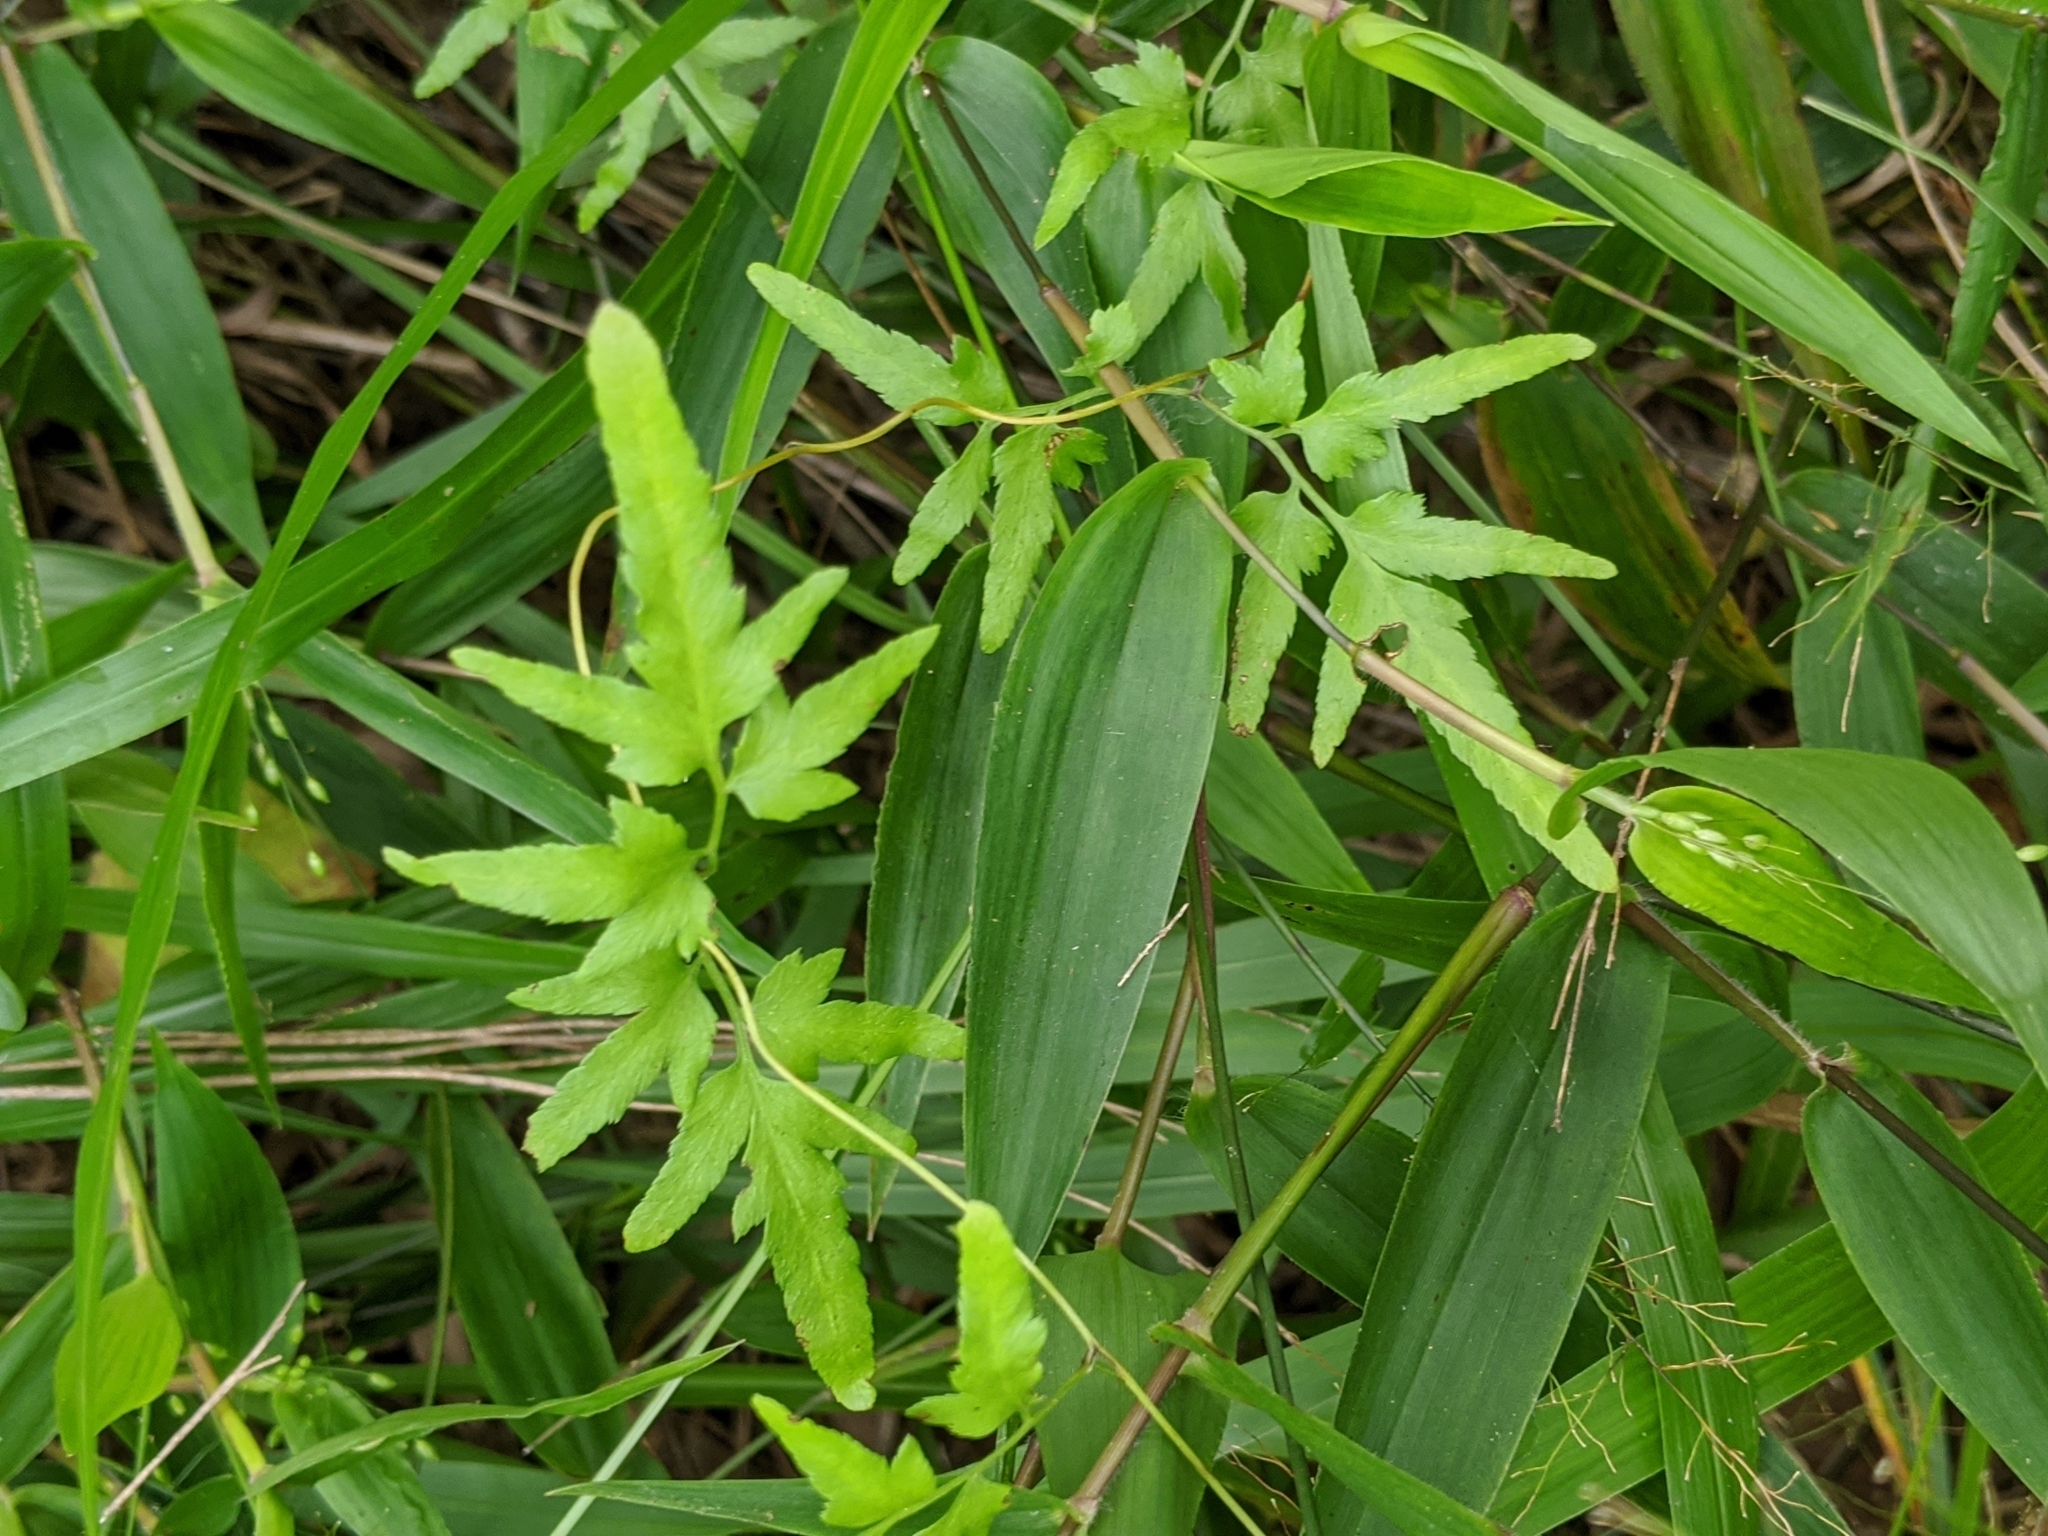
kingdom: Plantae
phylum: Tracheophyta
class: Polypodiopsida
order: Schizaeales
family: Lygodiaceae
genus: Lygodium
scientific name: Lygodium japonicum
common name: Japanese climbing fern
